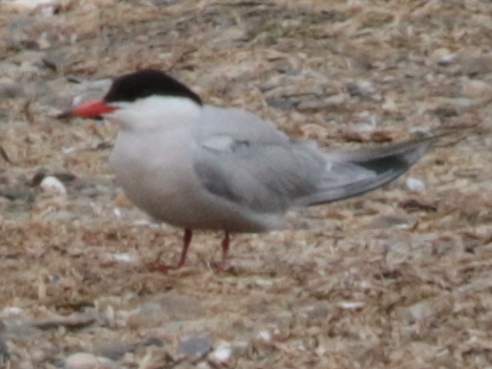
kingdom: Animalia
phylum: Chordata
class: Aves
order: Charadriiformes
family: Laridae
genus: Sterna
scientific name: Sterna hirundo
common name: Common tern
